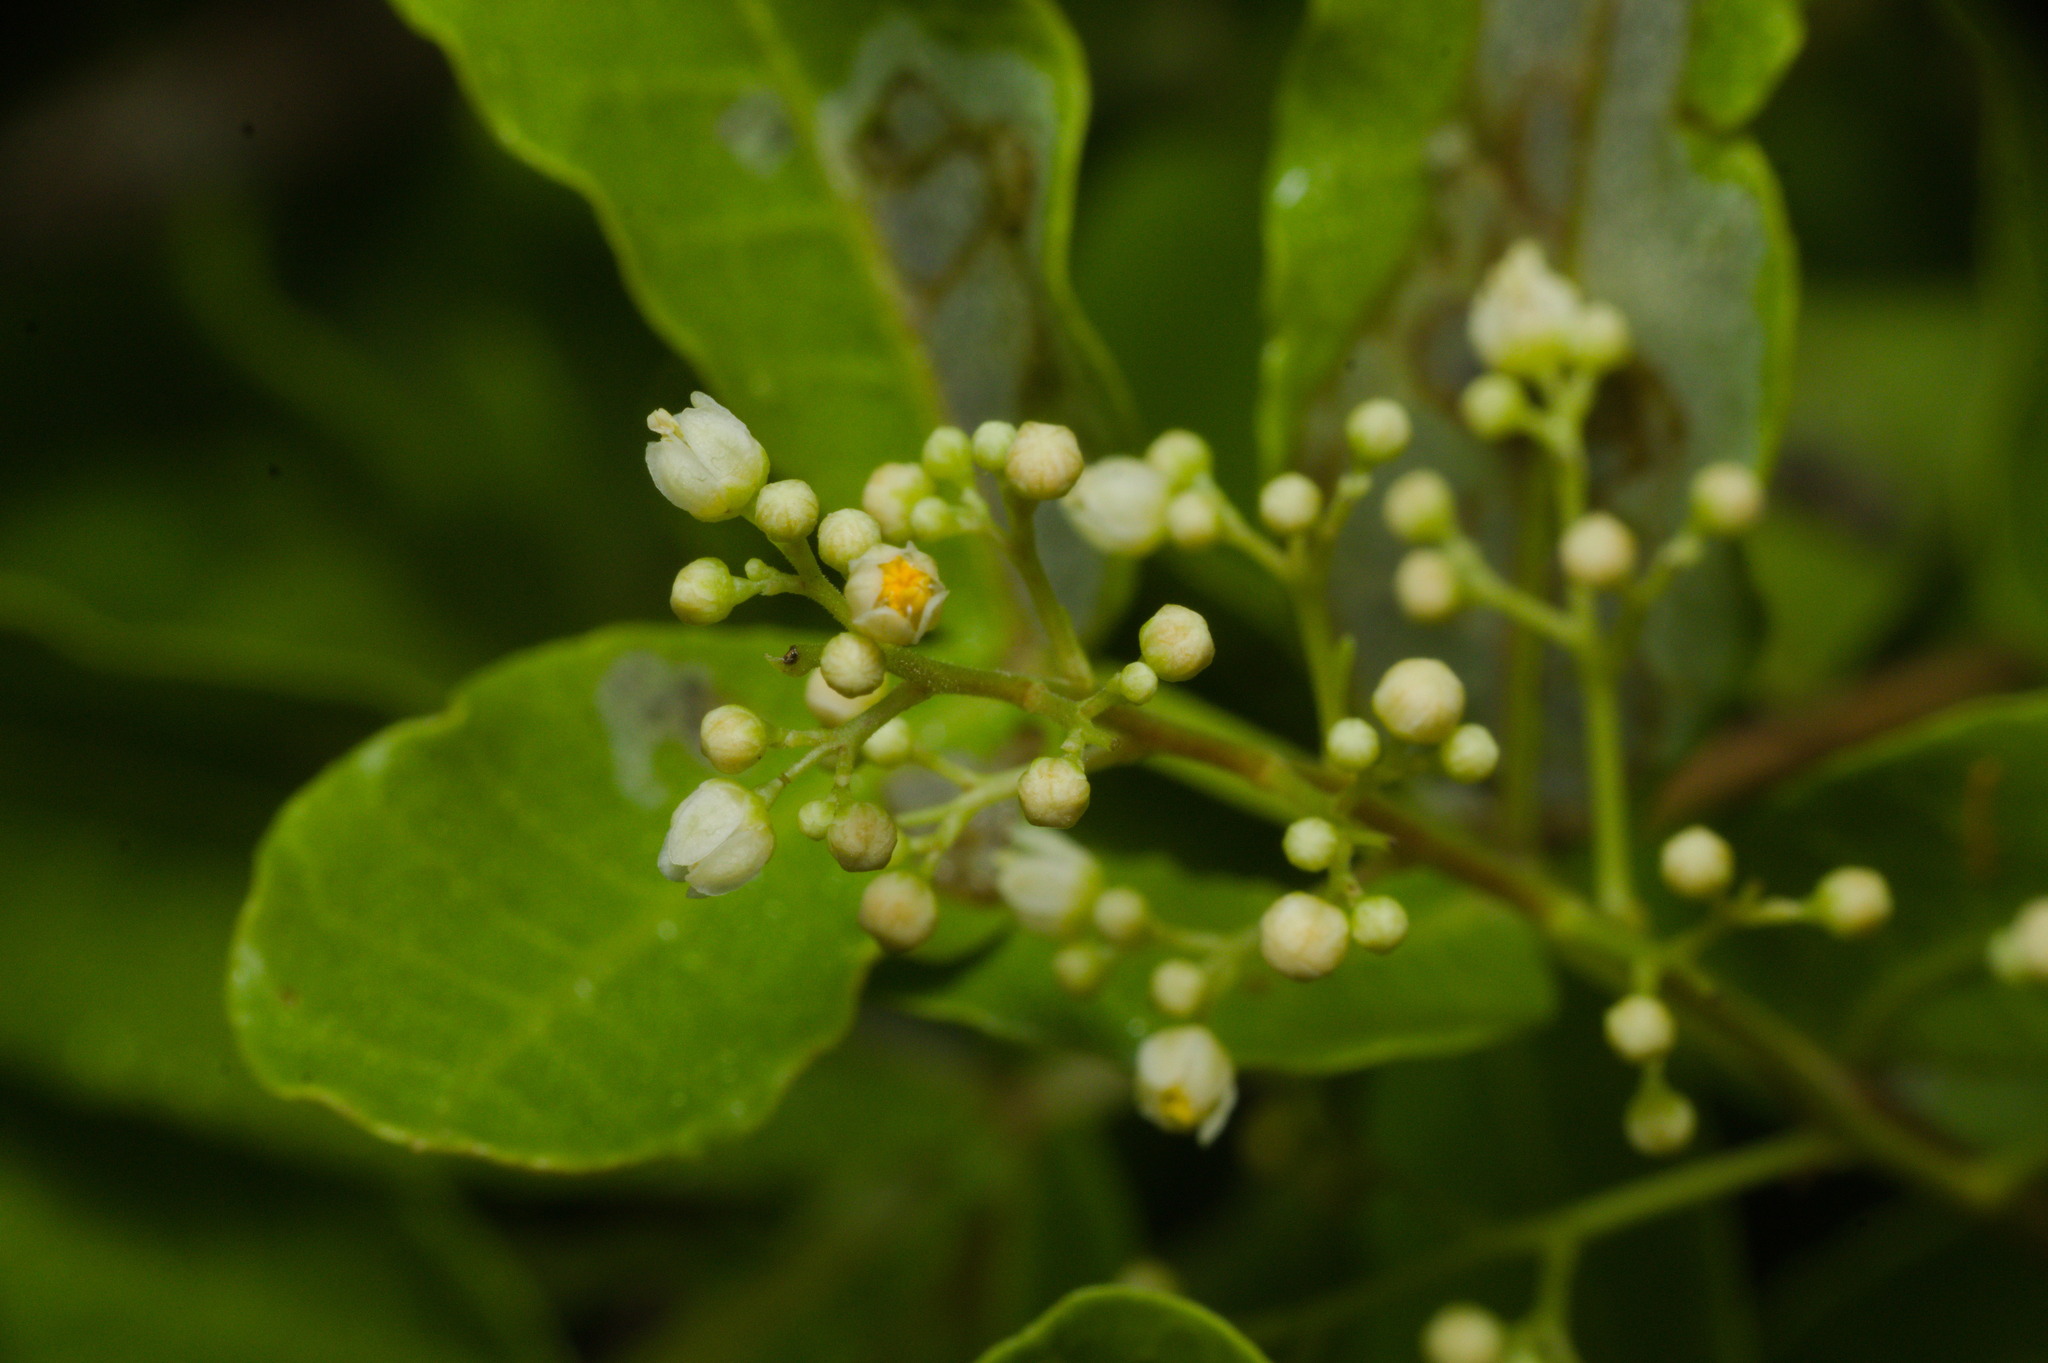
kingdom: Plantae
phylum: Tracheophyta
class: Magnoliopsida
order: Sapindales
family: Anacardiaceae
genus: Schinus
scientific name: Schinus terebinthifolia
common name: Brazilian peppertree
